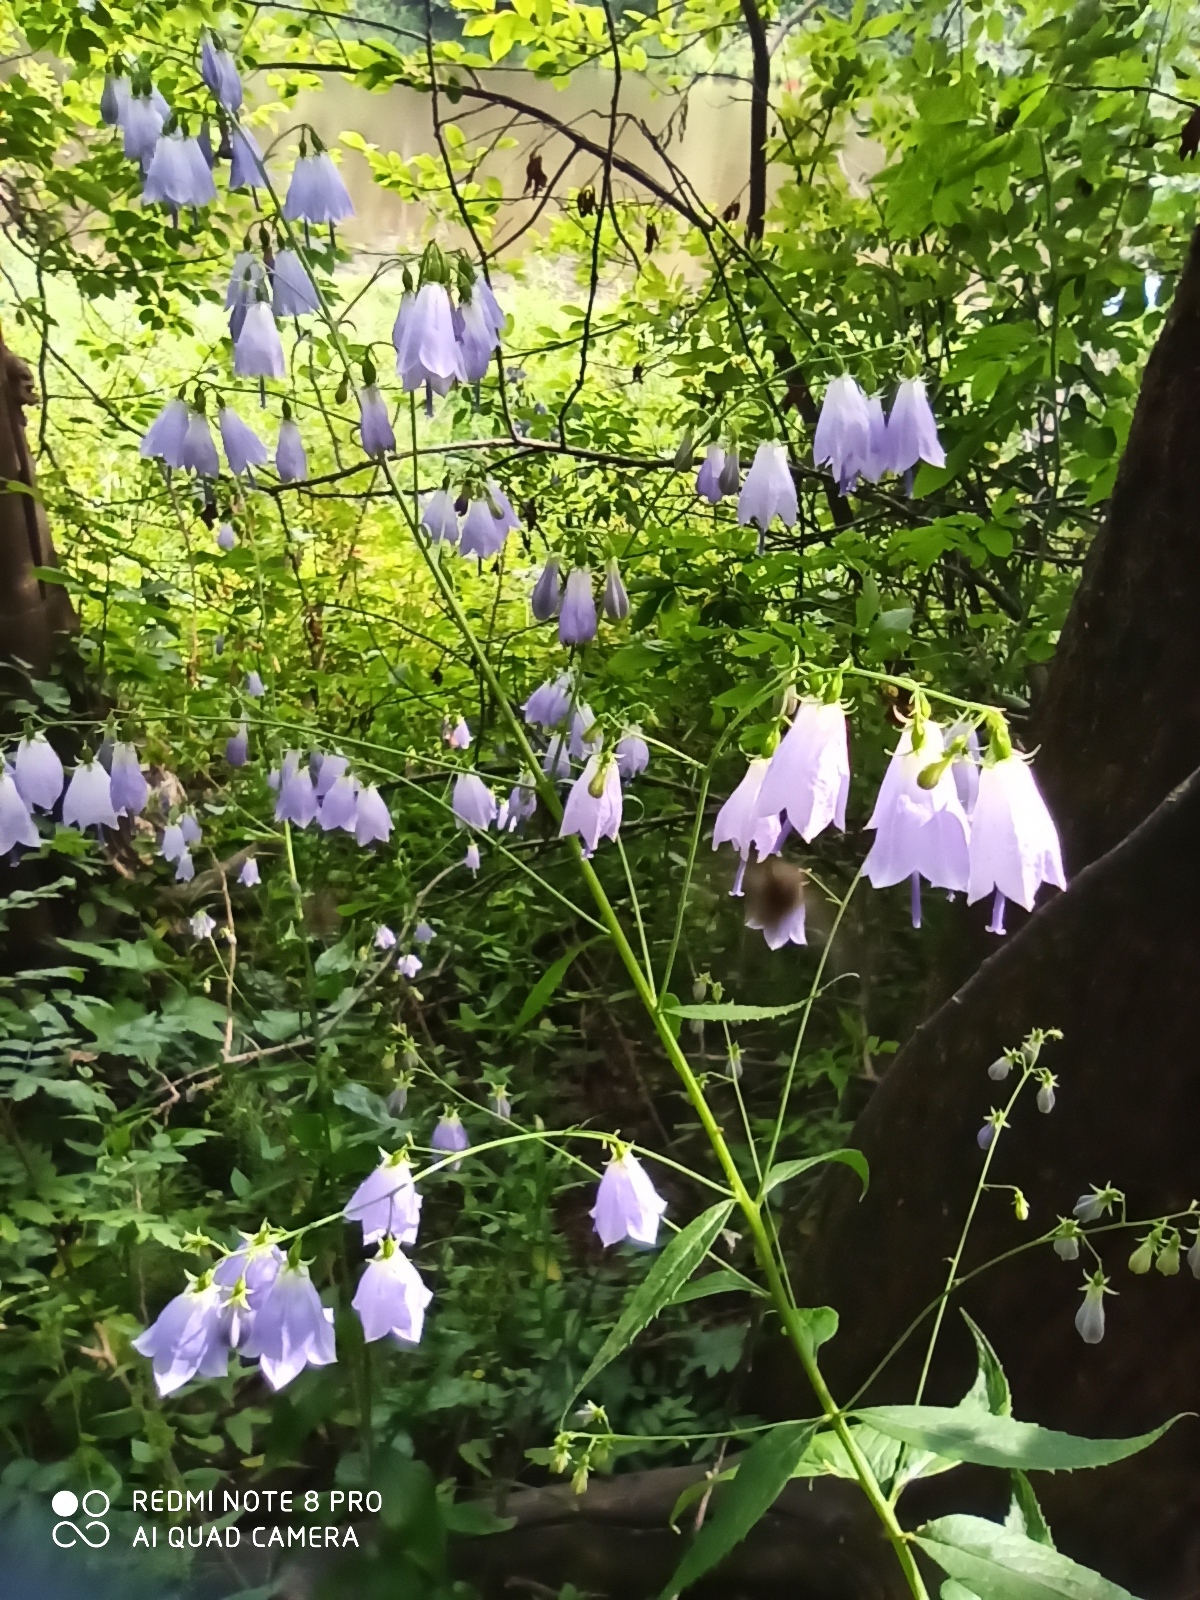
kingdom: Plantae
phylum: Tracheophyta
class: Magnoliopsida
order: Asterales
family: Campanulaceae
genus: Adenophora
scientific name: Adenophora liliifolia
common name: Lilyleaf ladybells
